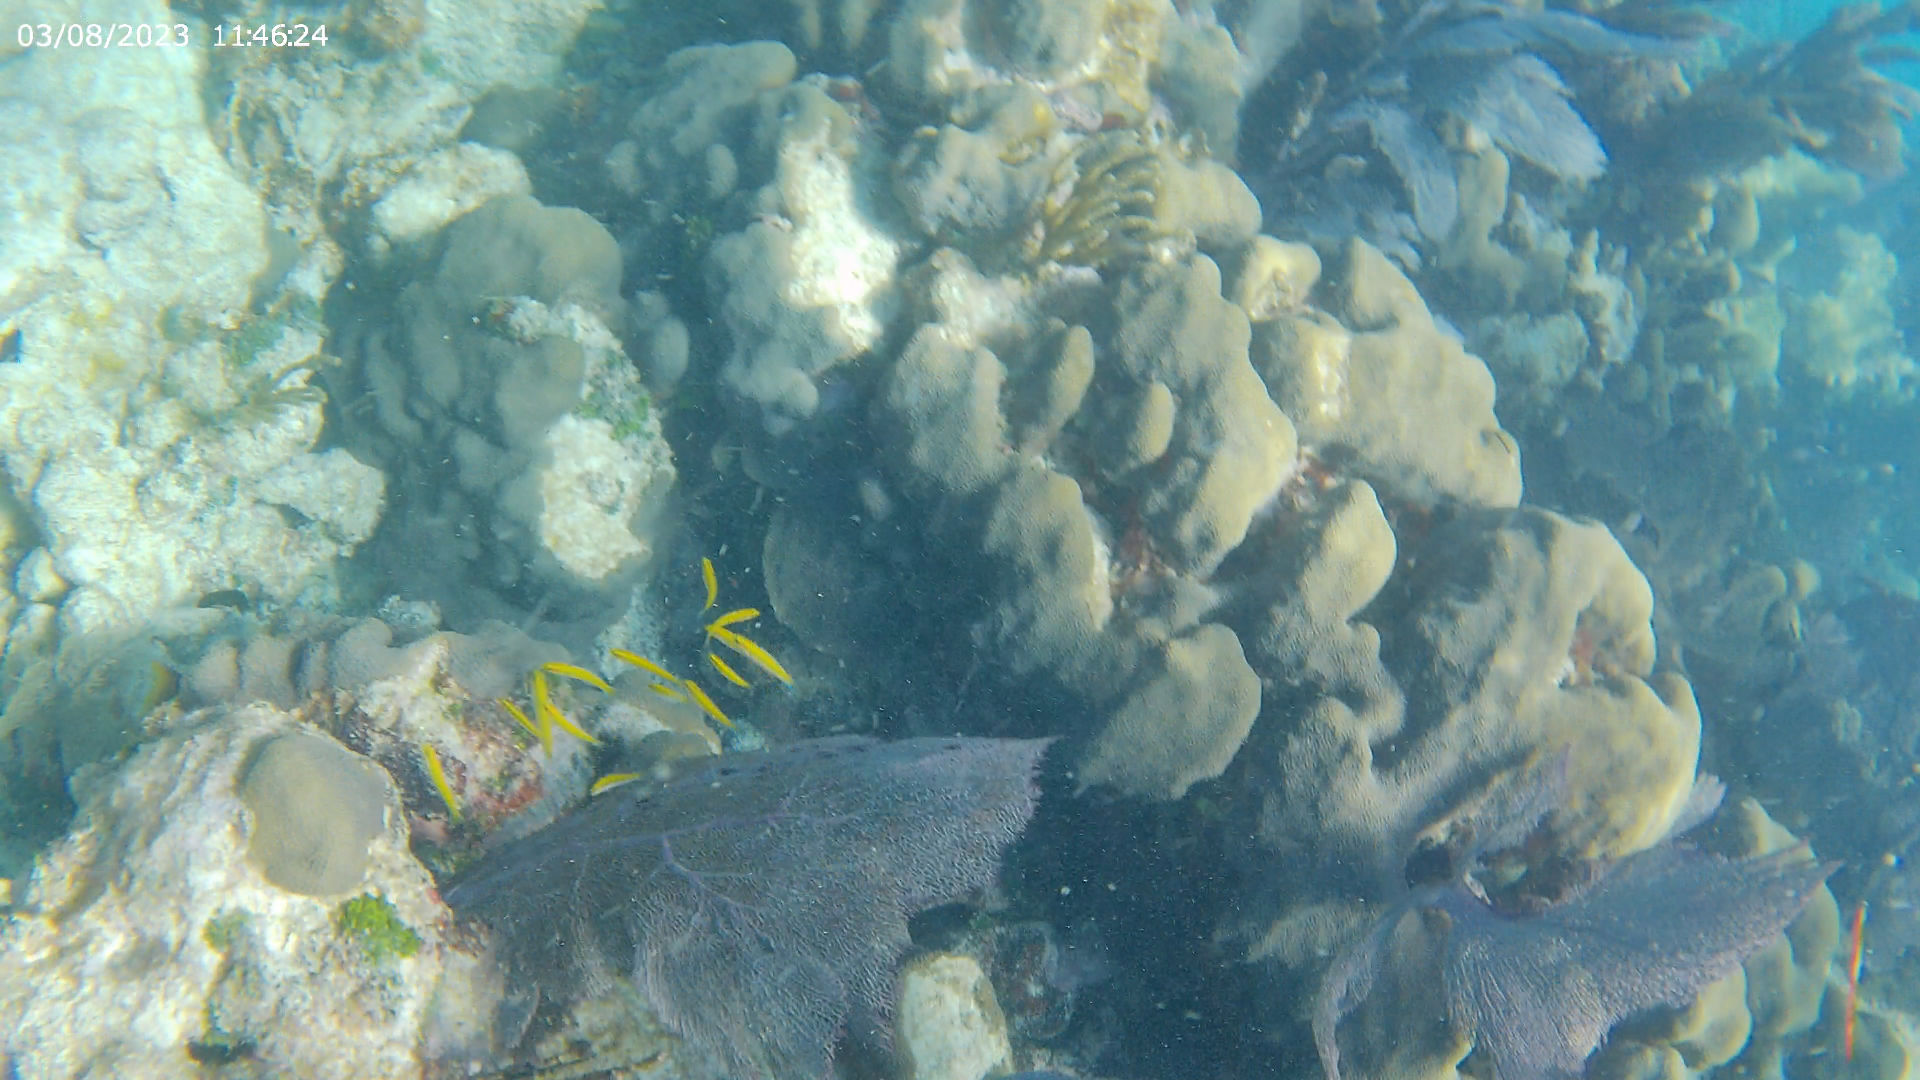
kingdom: Animalia
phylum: Chordata
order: Perciformes
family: Labridae
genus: Thalassoma
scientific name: Thalassoma bifasciatum
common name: Bluehead wrasse
